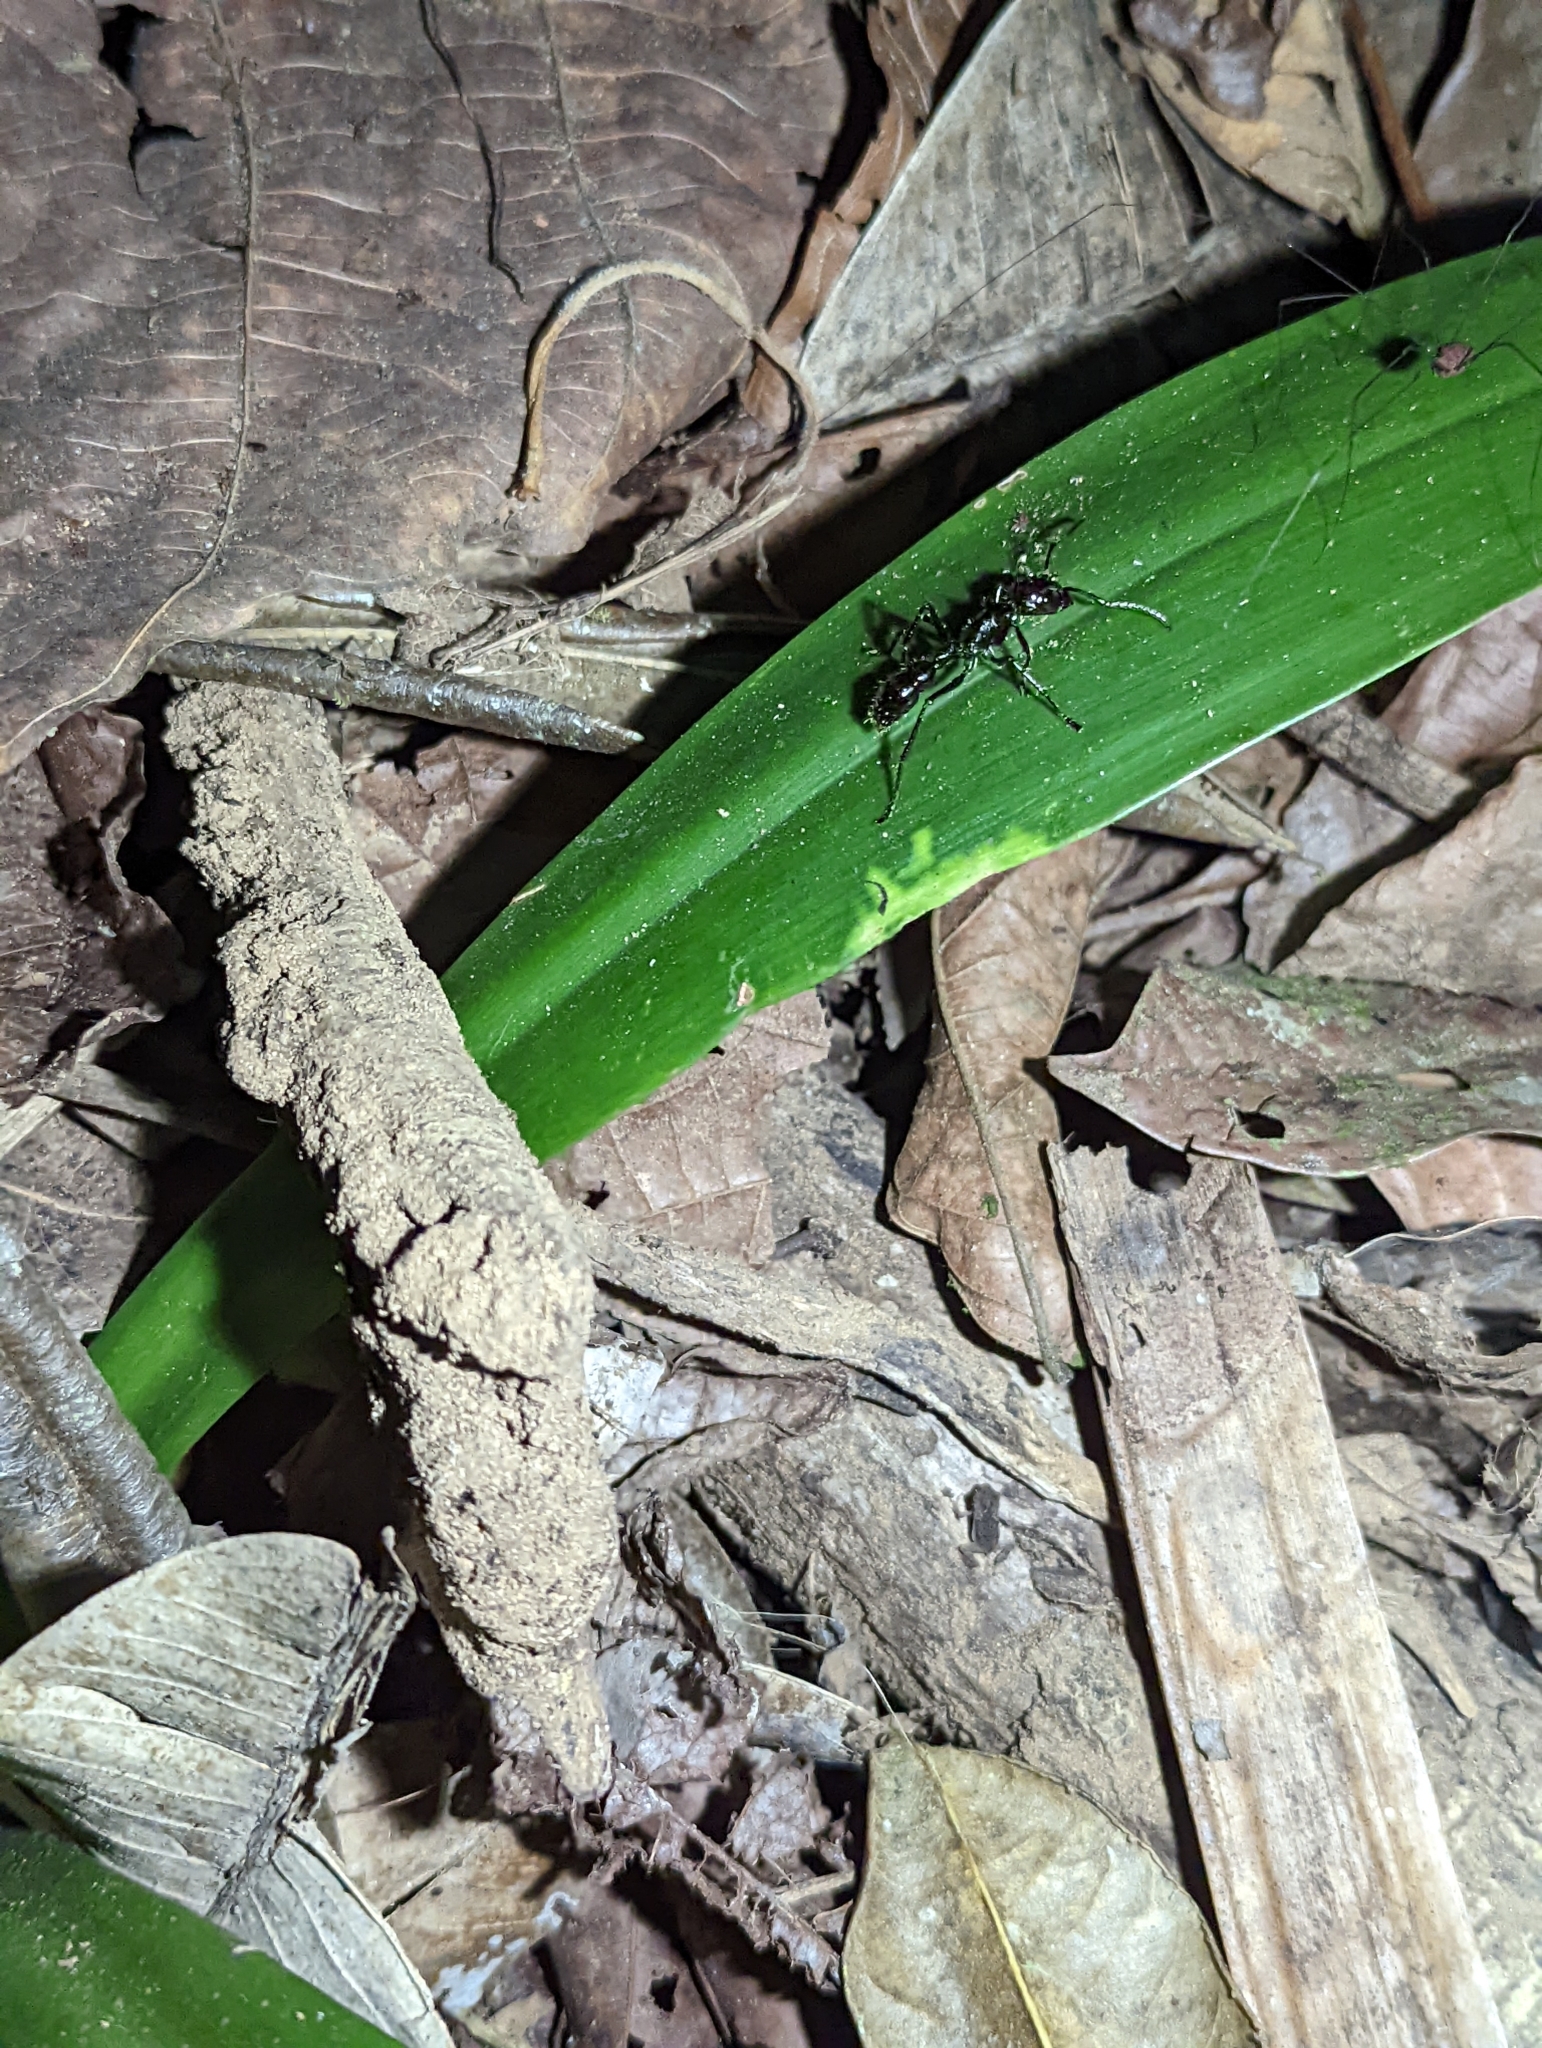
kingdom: Animalia
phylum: Arthropoda
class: Insecta
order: Hymenoptera
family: Formicidae
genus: Paraponera
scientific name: Paraponera clavata
